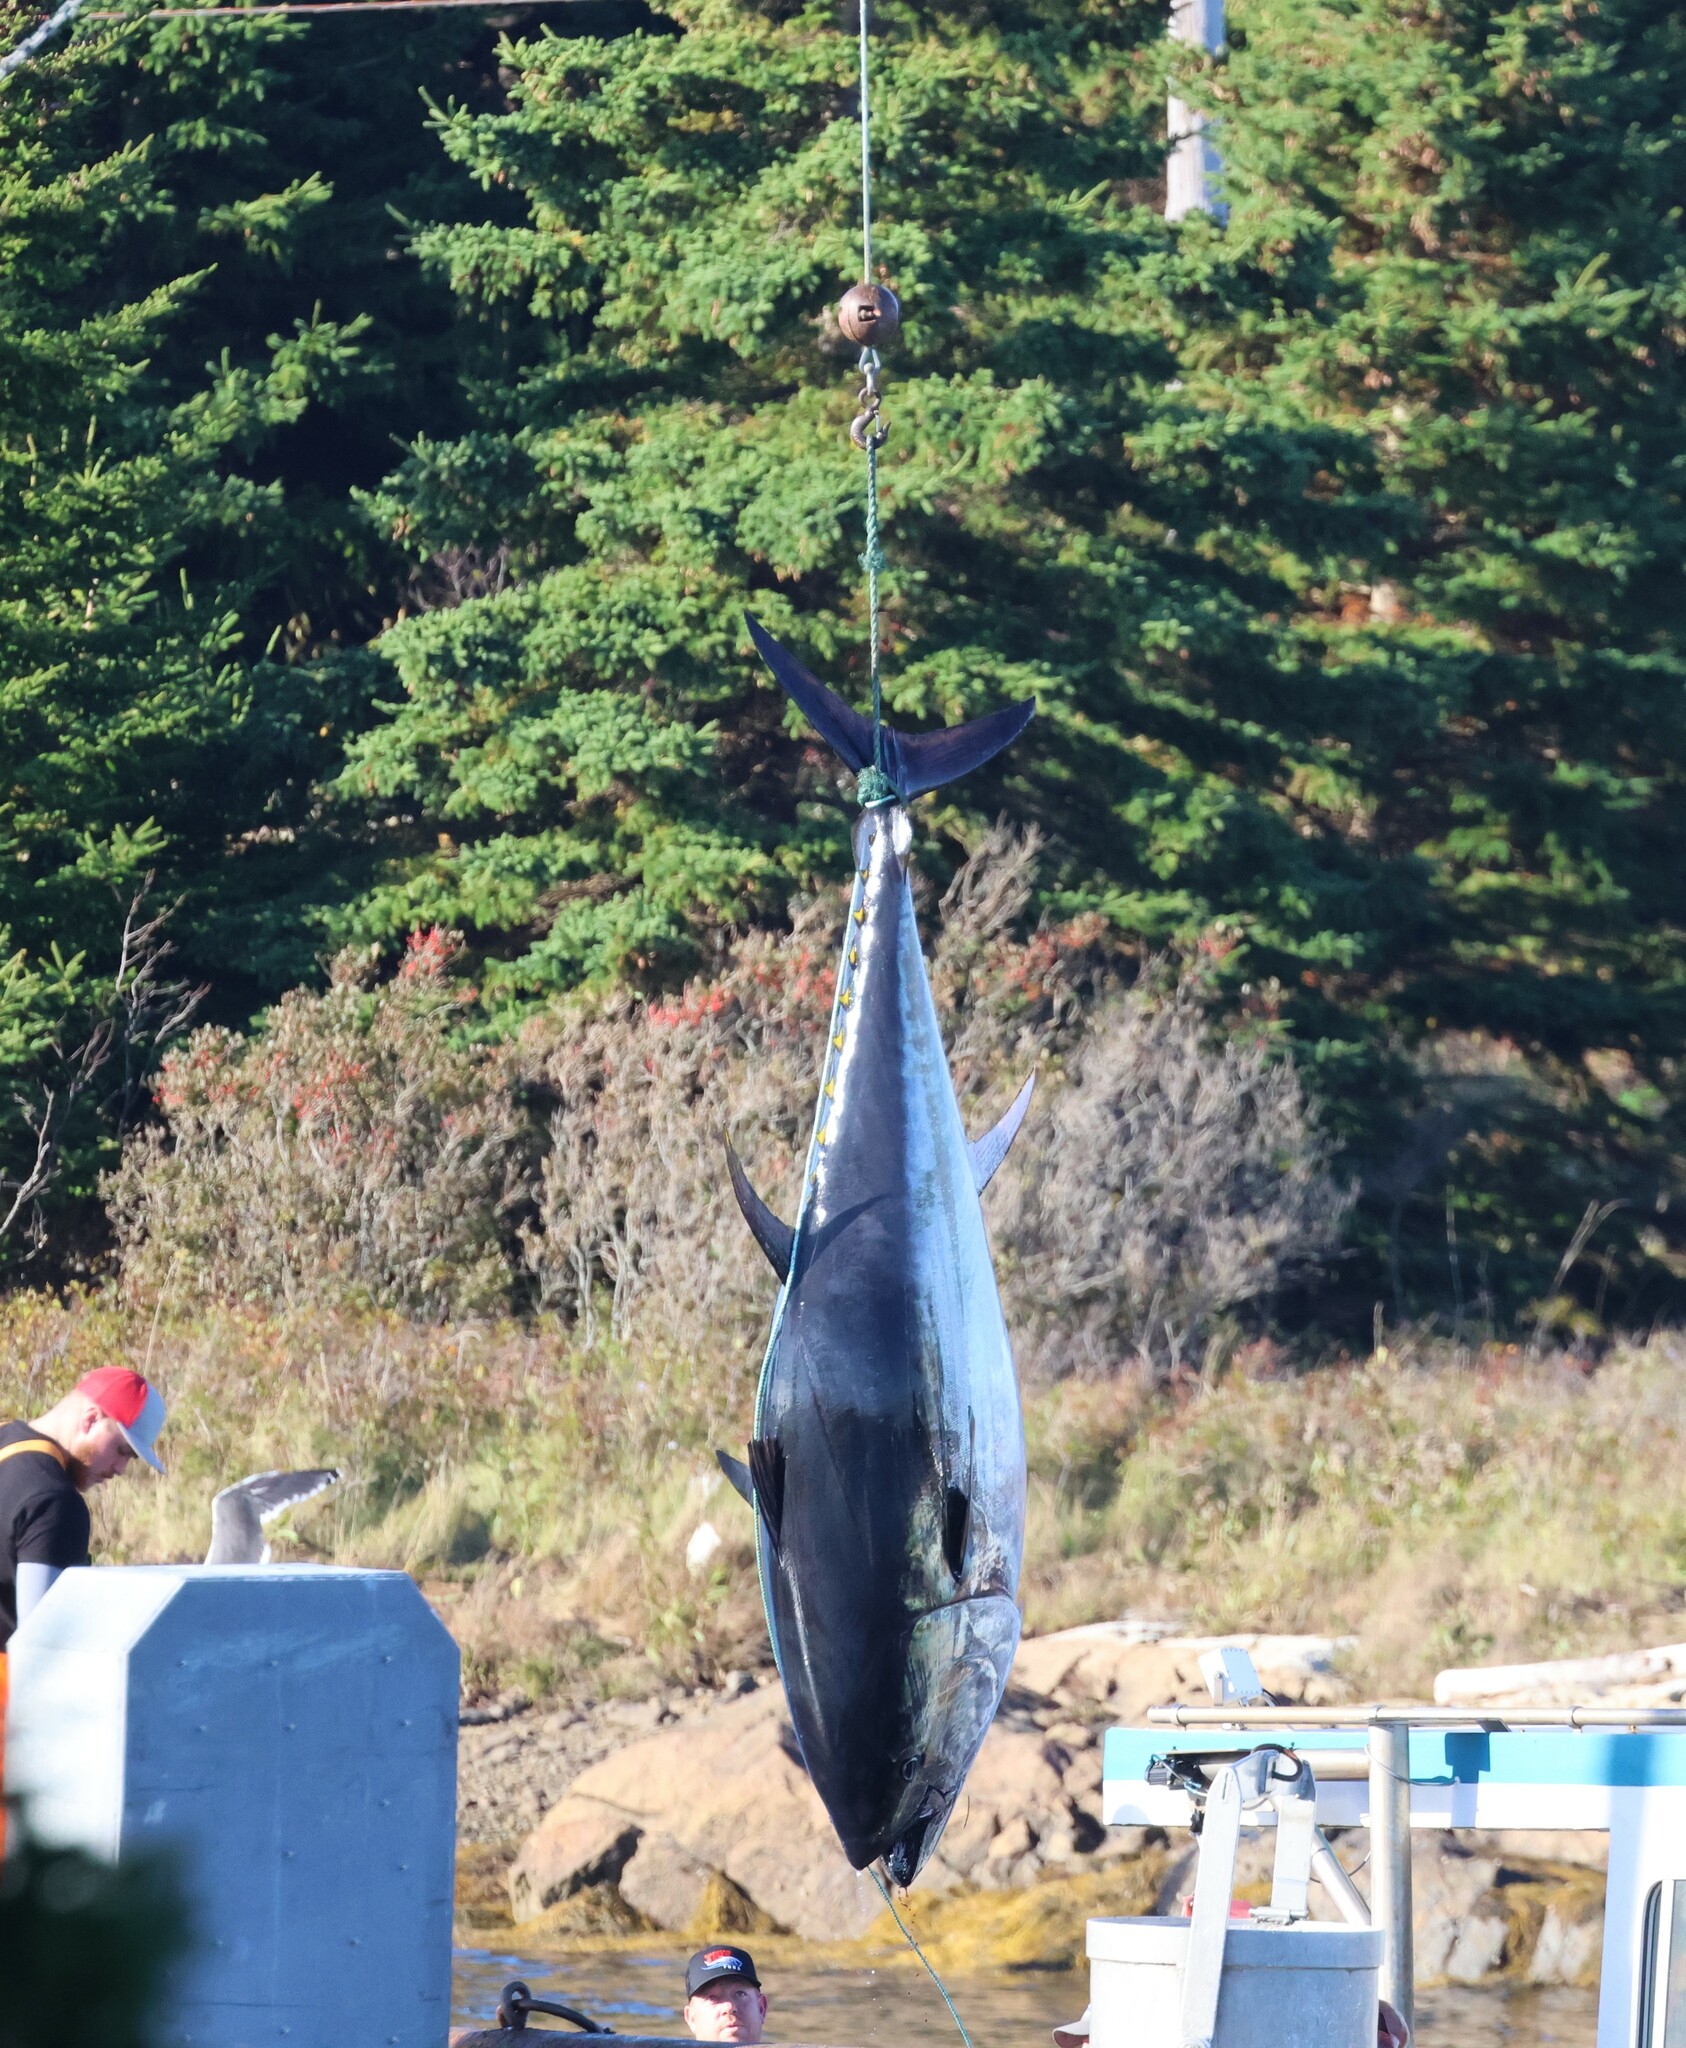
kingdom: Animalia
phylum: Chordata
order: Perciformes
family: Scombridae
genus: Thunnus
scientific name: Thunnus thynnus
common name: Bluefin tuna
